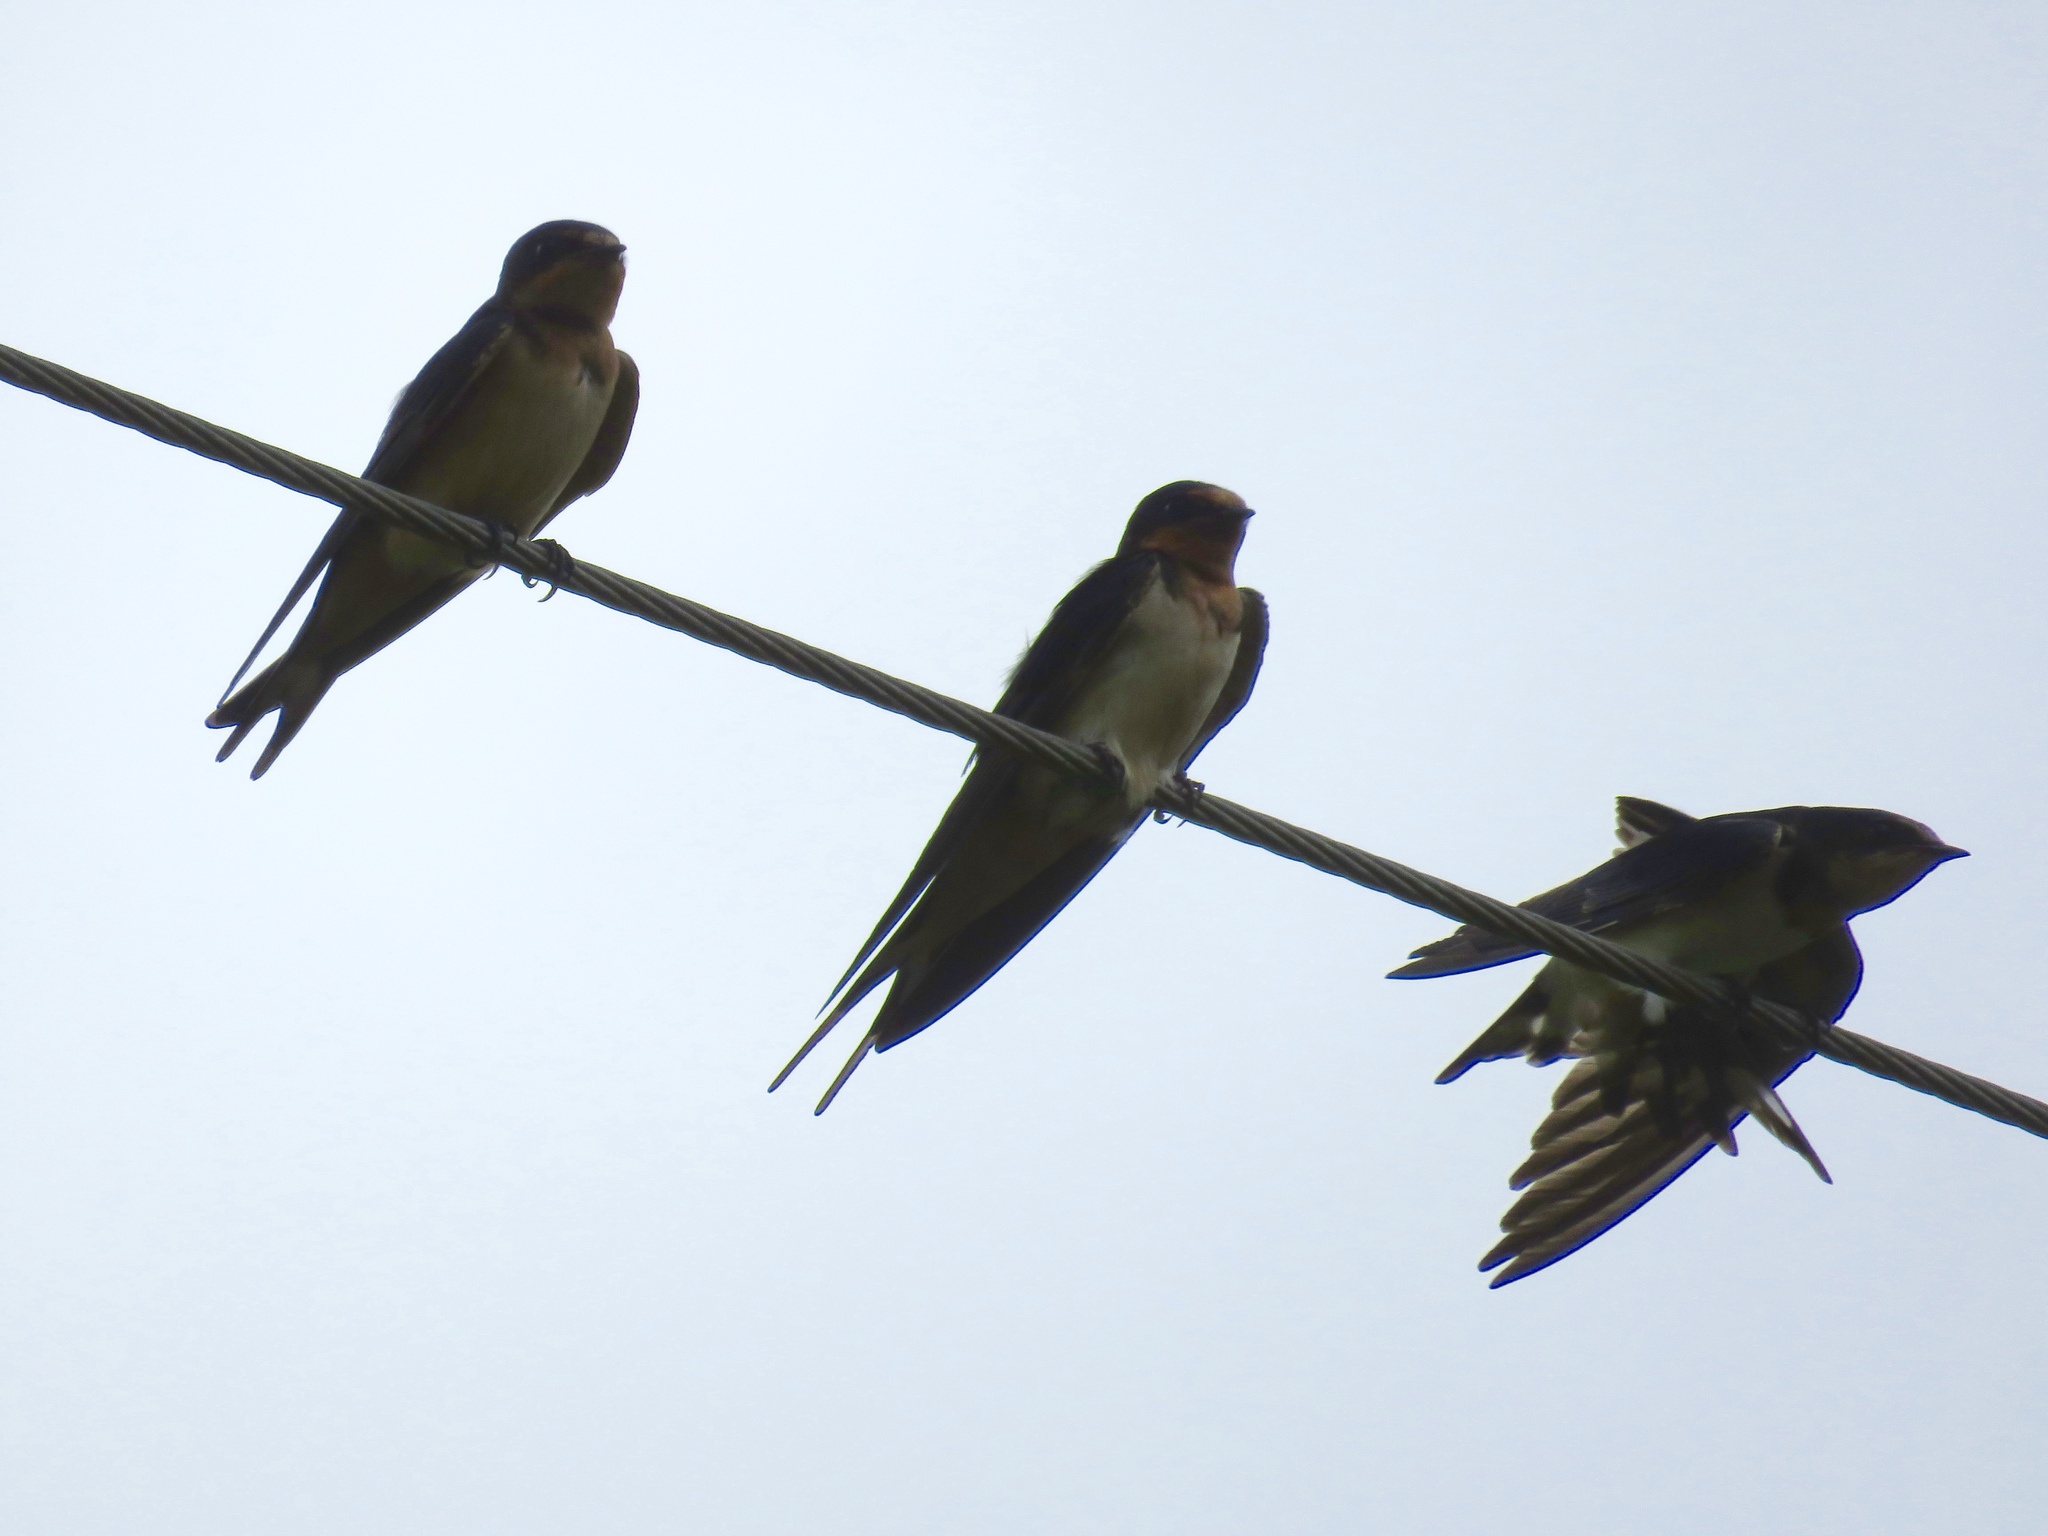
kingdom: Animalia
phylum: Chordata
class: Aves
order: Passeriformes
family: Hirundinidae
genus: Hirundo
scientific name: Hirundo rustica
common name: Barn swallow
